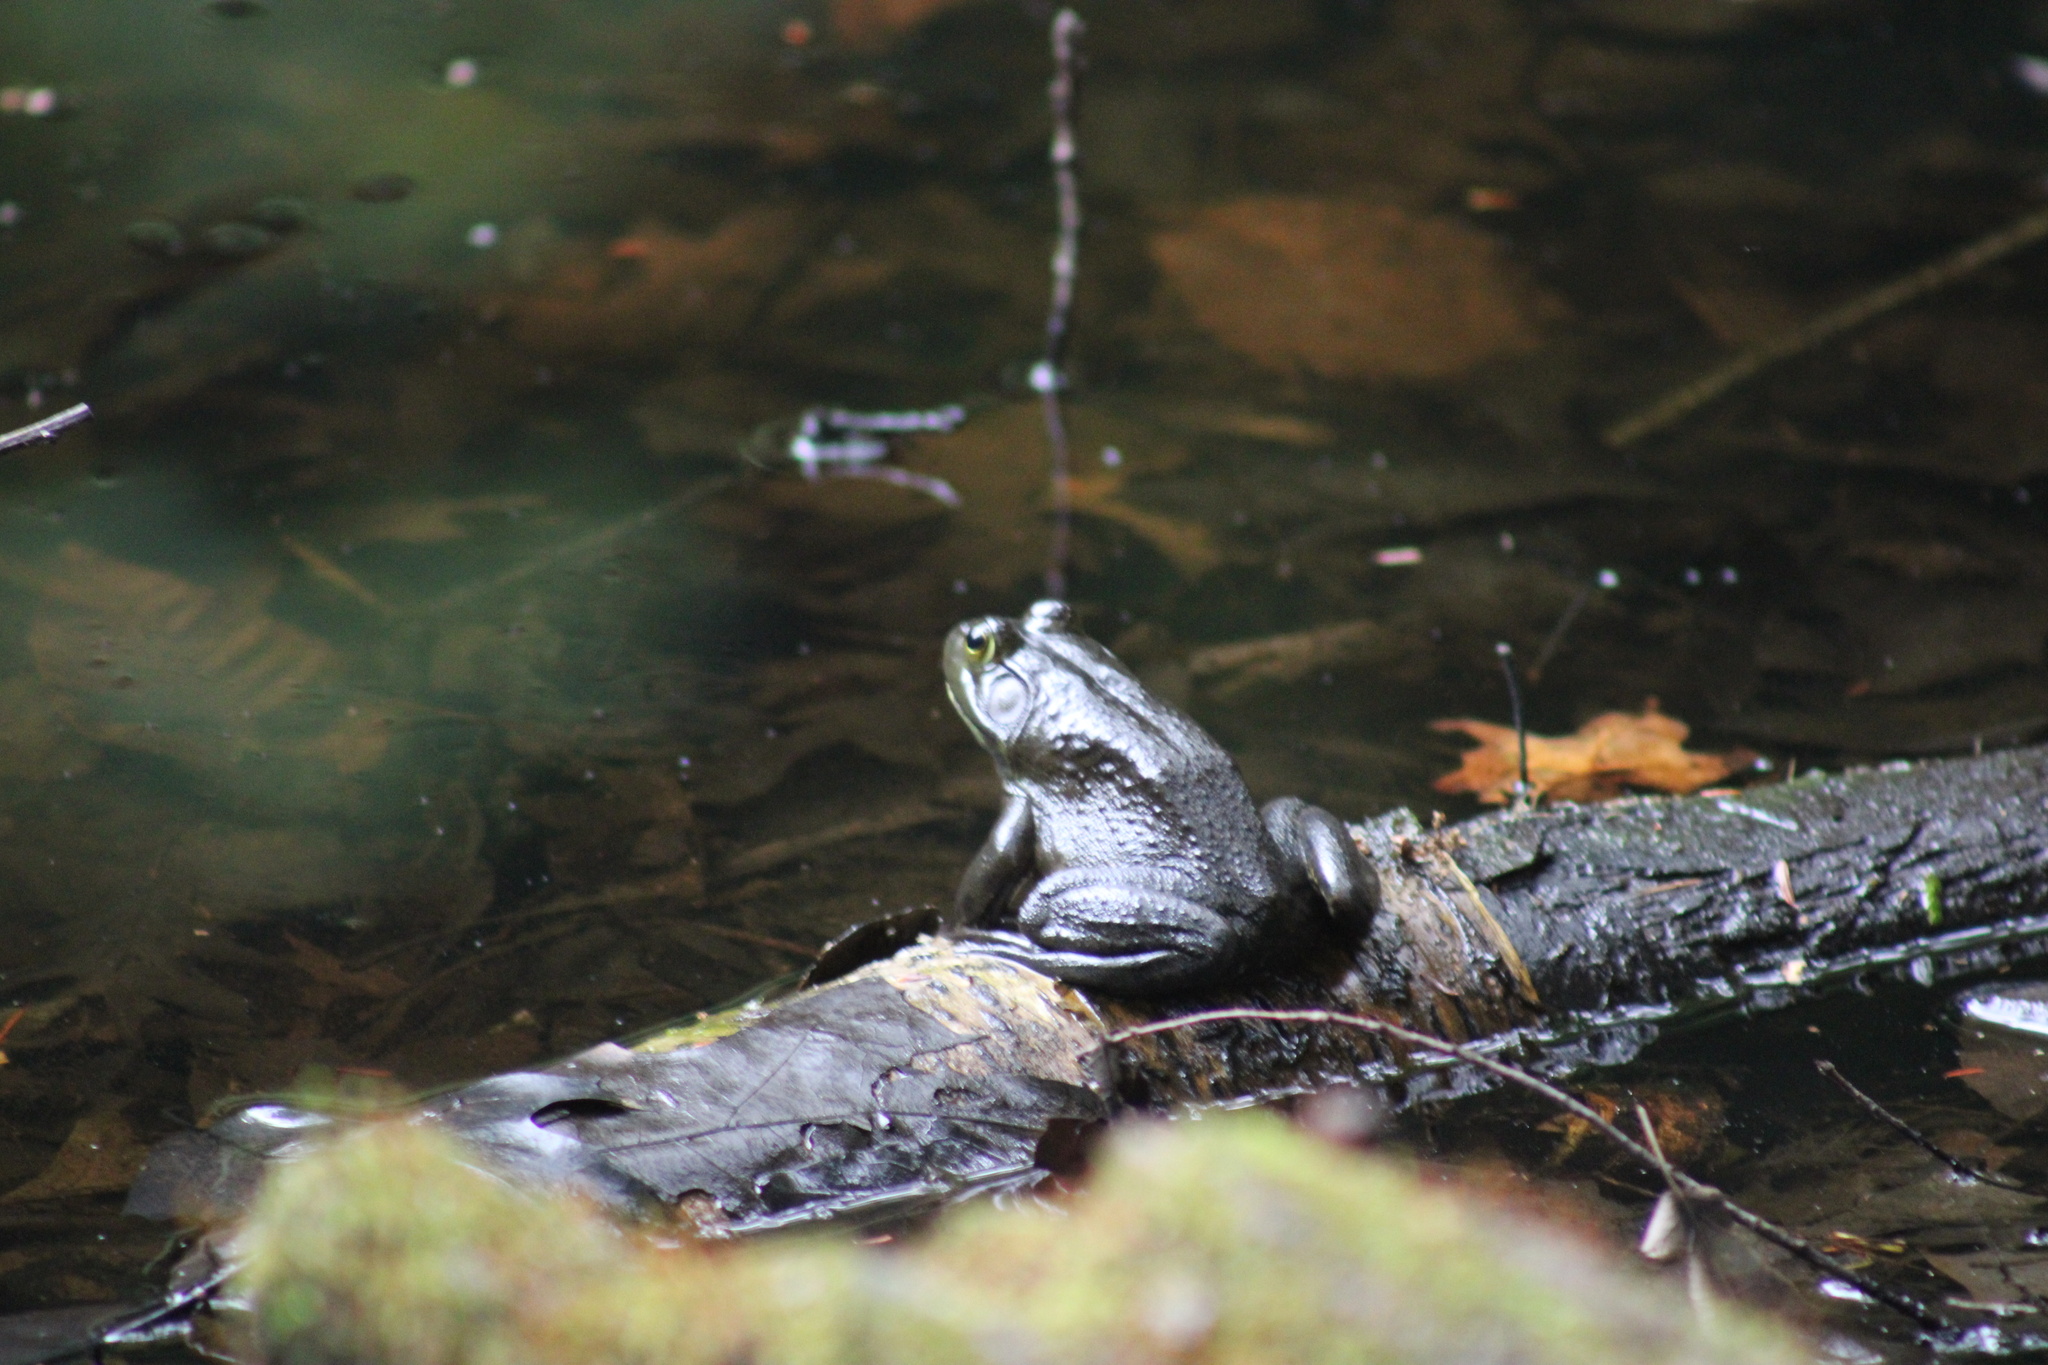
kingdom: Animalia
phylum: Chordata
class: Amphibia
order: Anura
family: Ranidae
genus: Lithobates
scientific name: Lithobates catesbeianus
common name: American bullfrog
